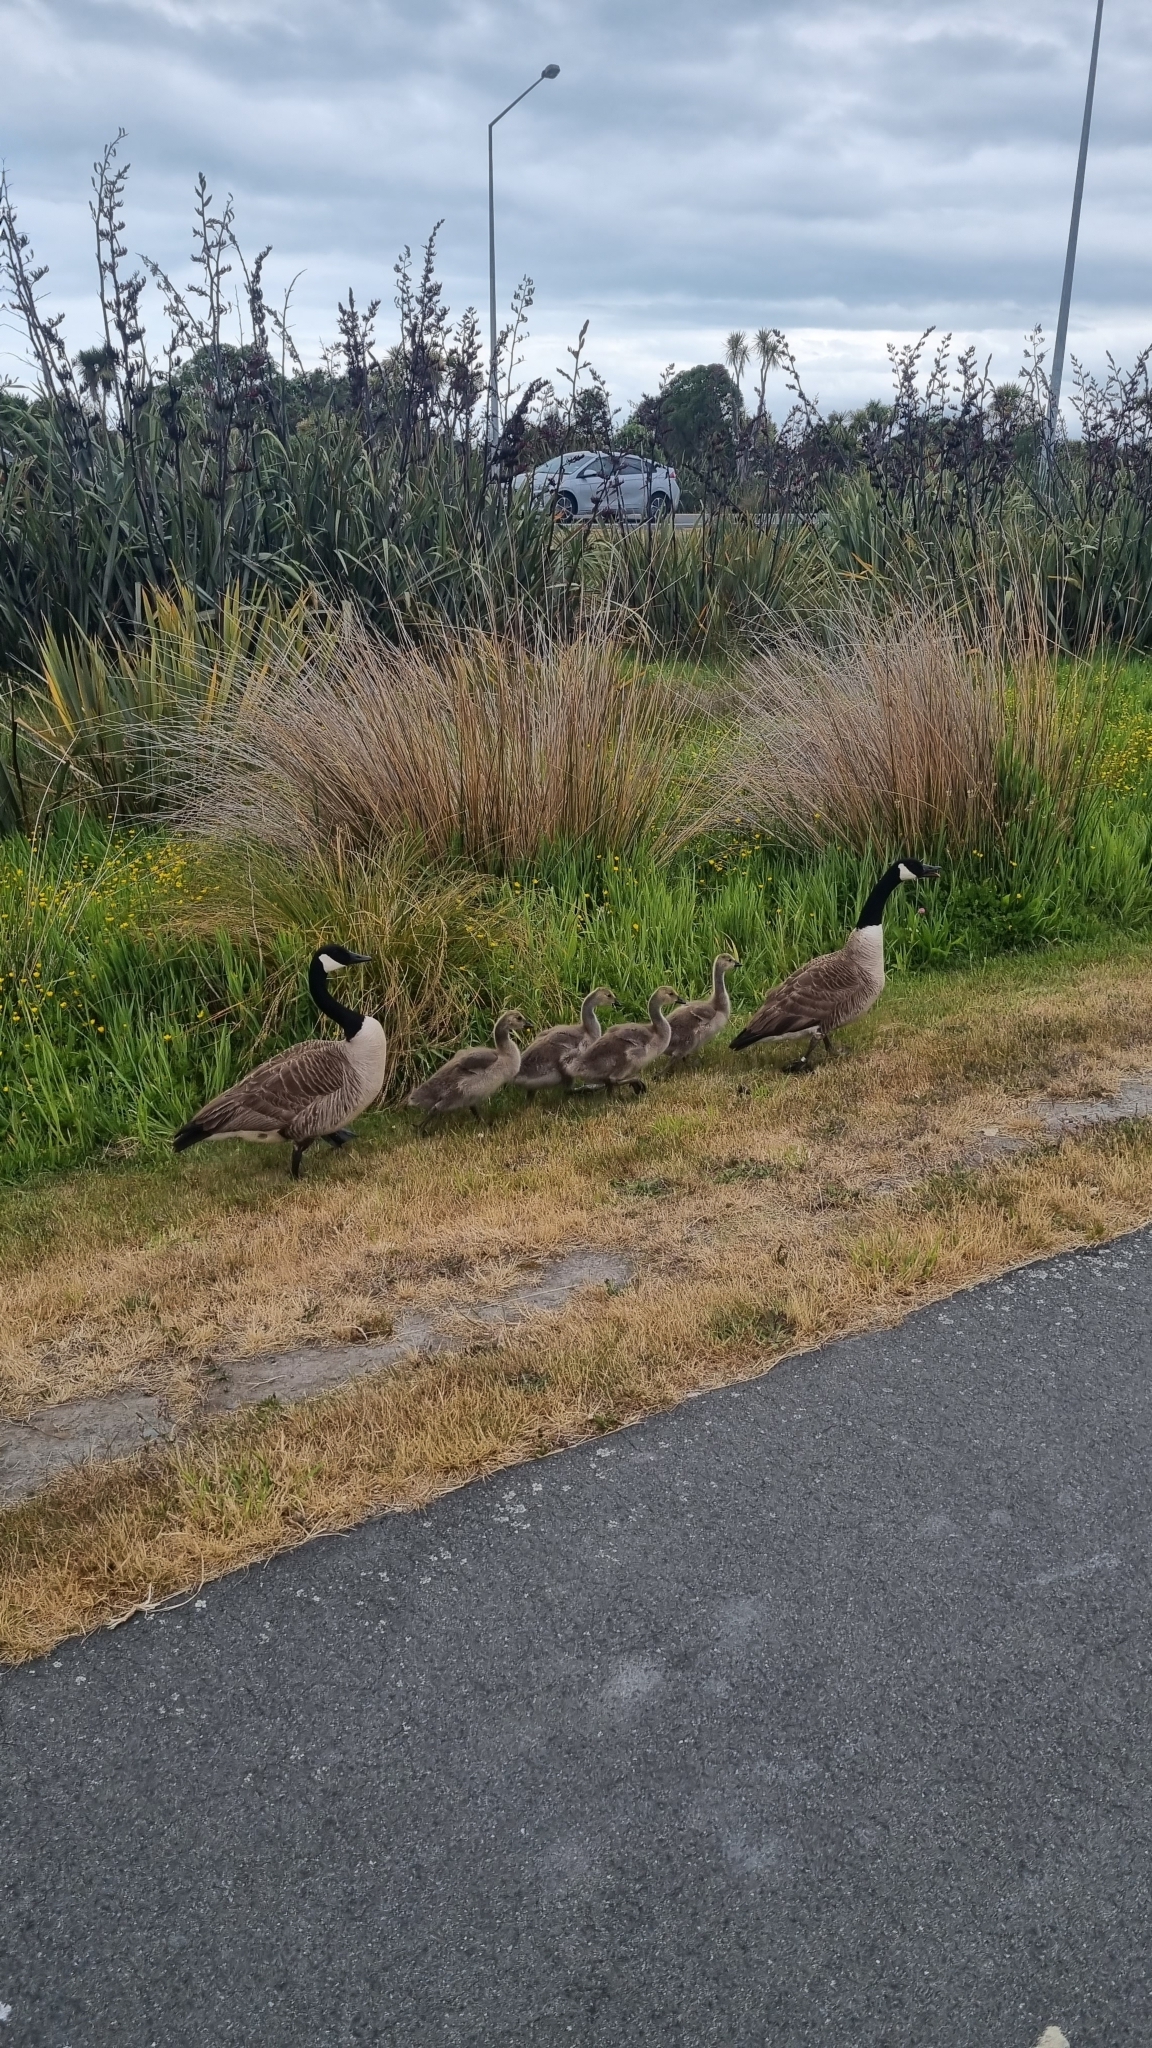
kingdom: Animalia
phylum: Chordata
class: Aves
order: Anseriformes
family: Anatidae
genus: Branta
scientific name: Branta canadensis
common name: Canada goose
